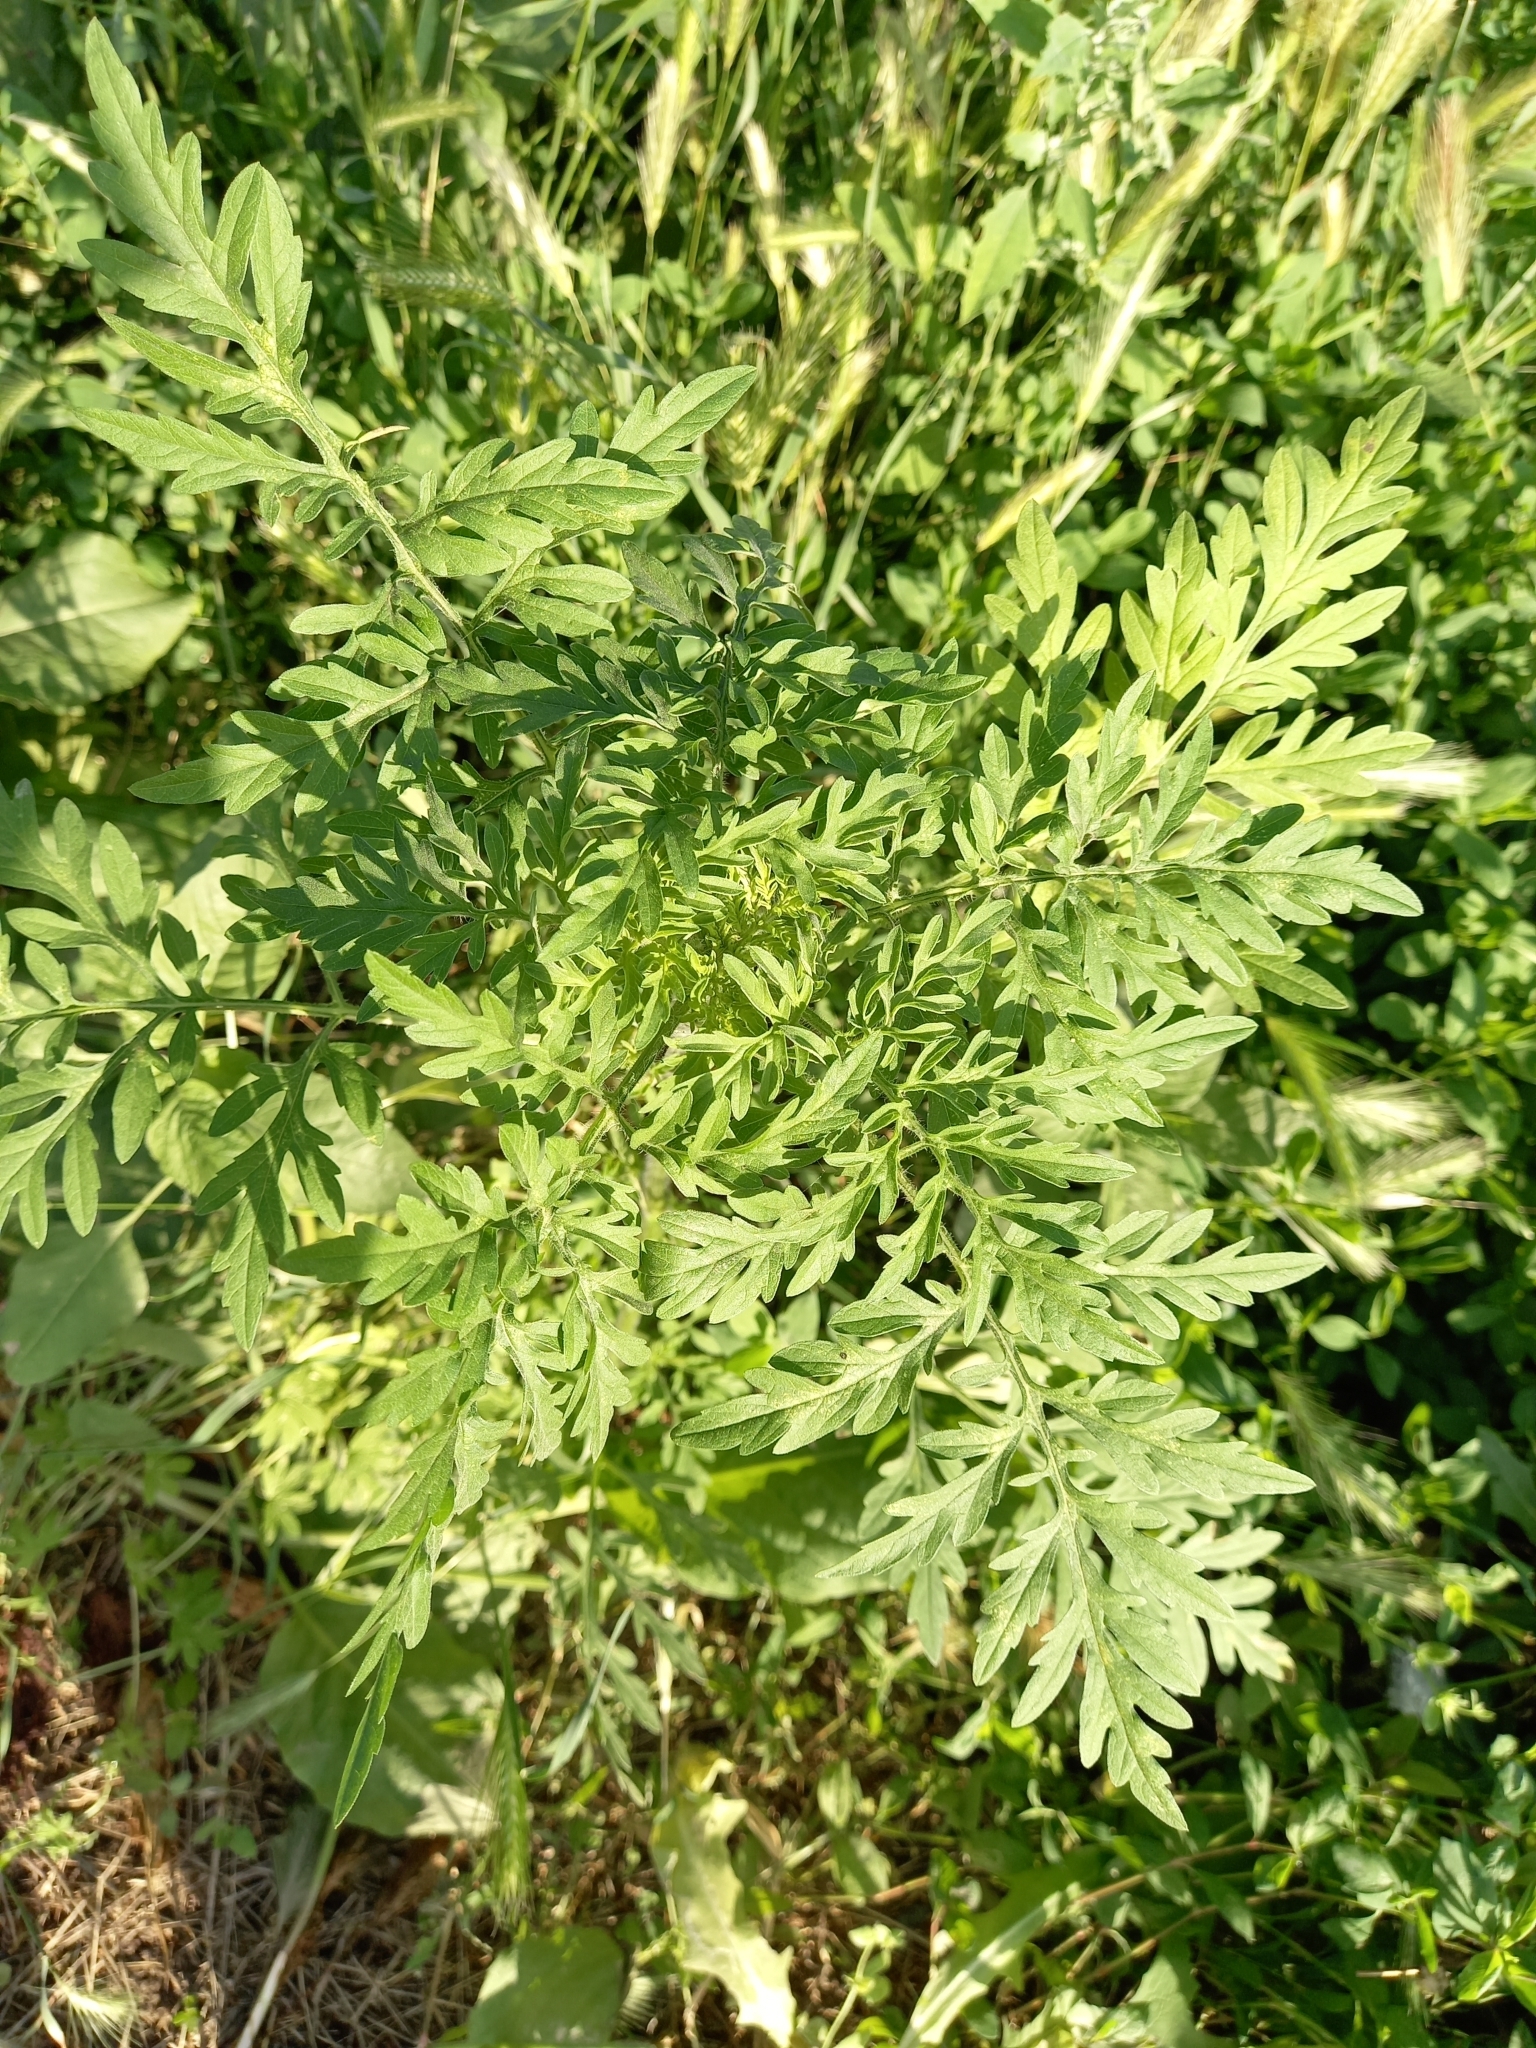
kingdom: Plantae
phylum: Tracheophyta
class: Magnoliopsida
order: Asterales
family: Asteraceae
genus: Ambrosia
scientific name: Ambrosia artemisiifolia
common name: Annual ragweed
